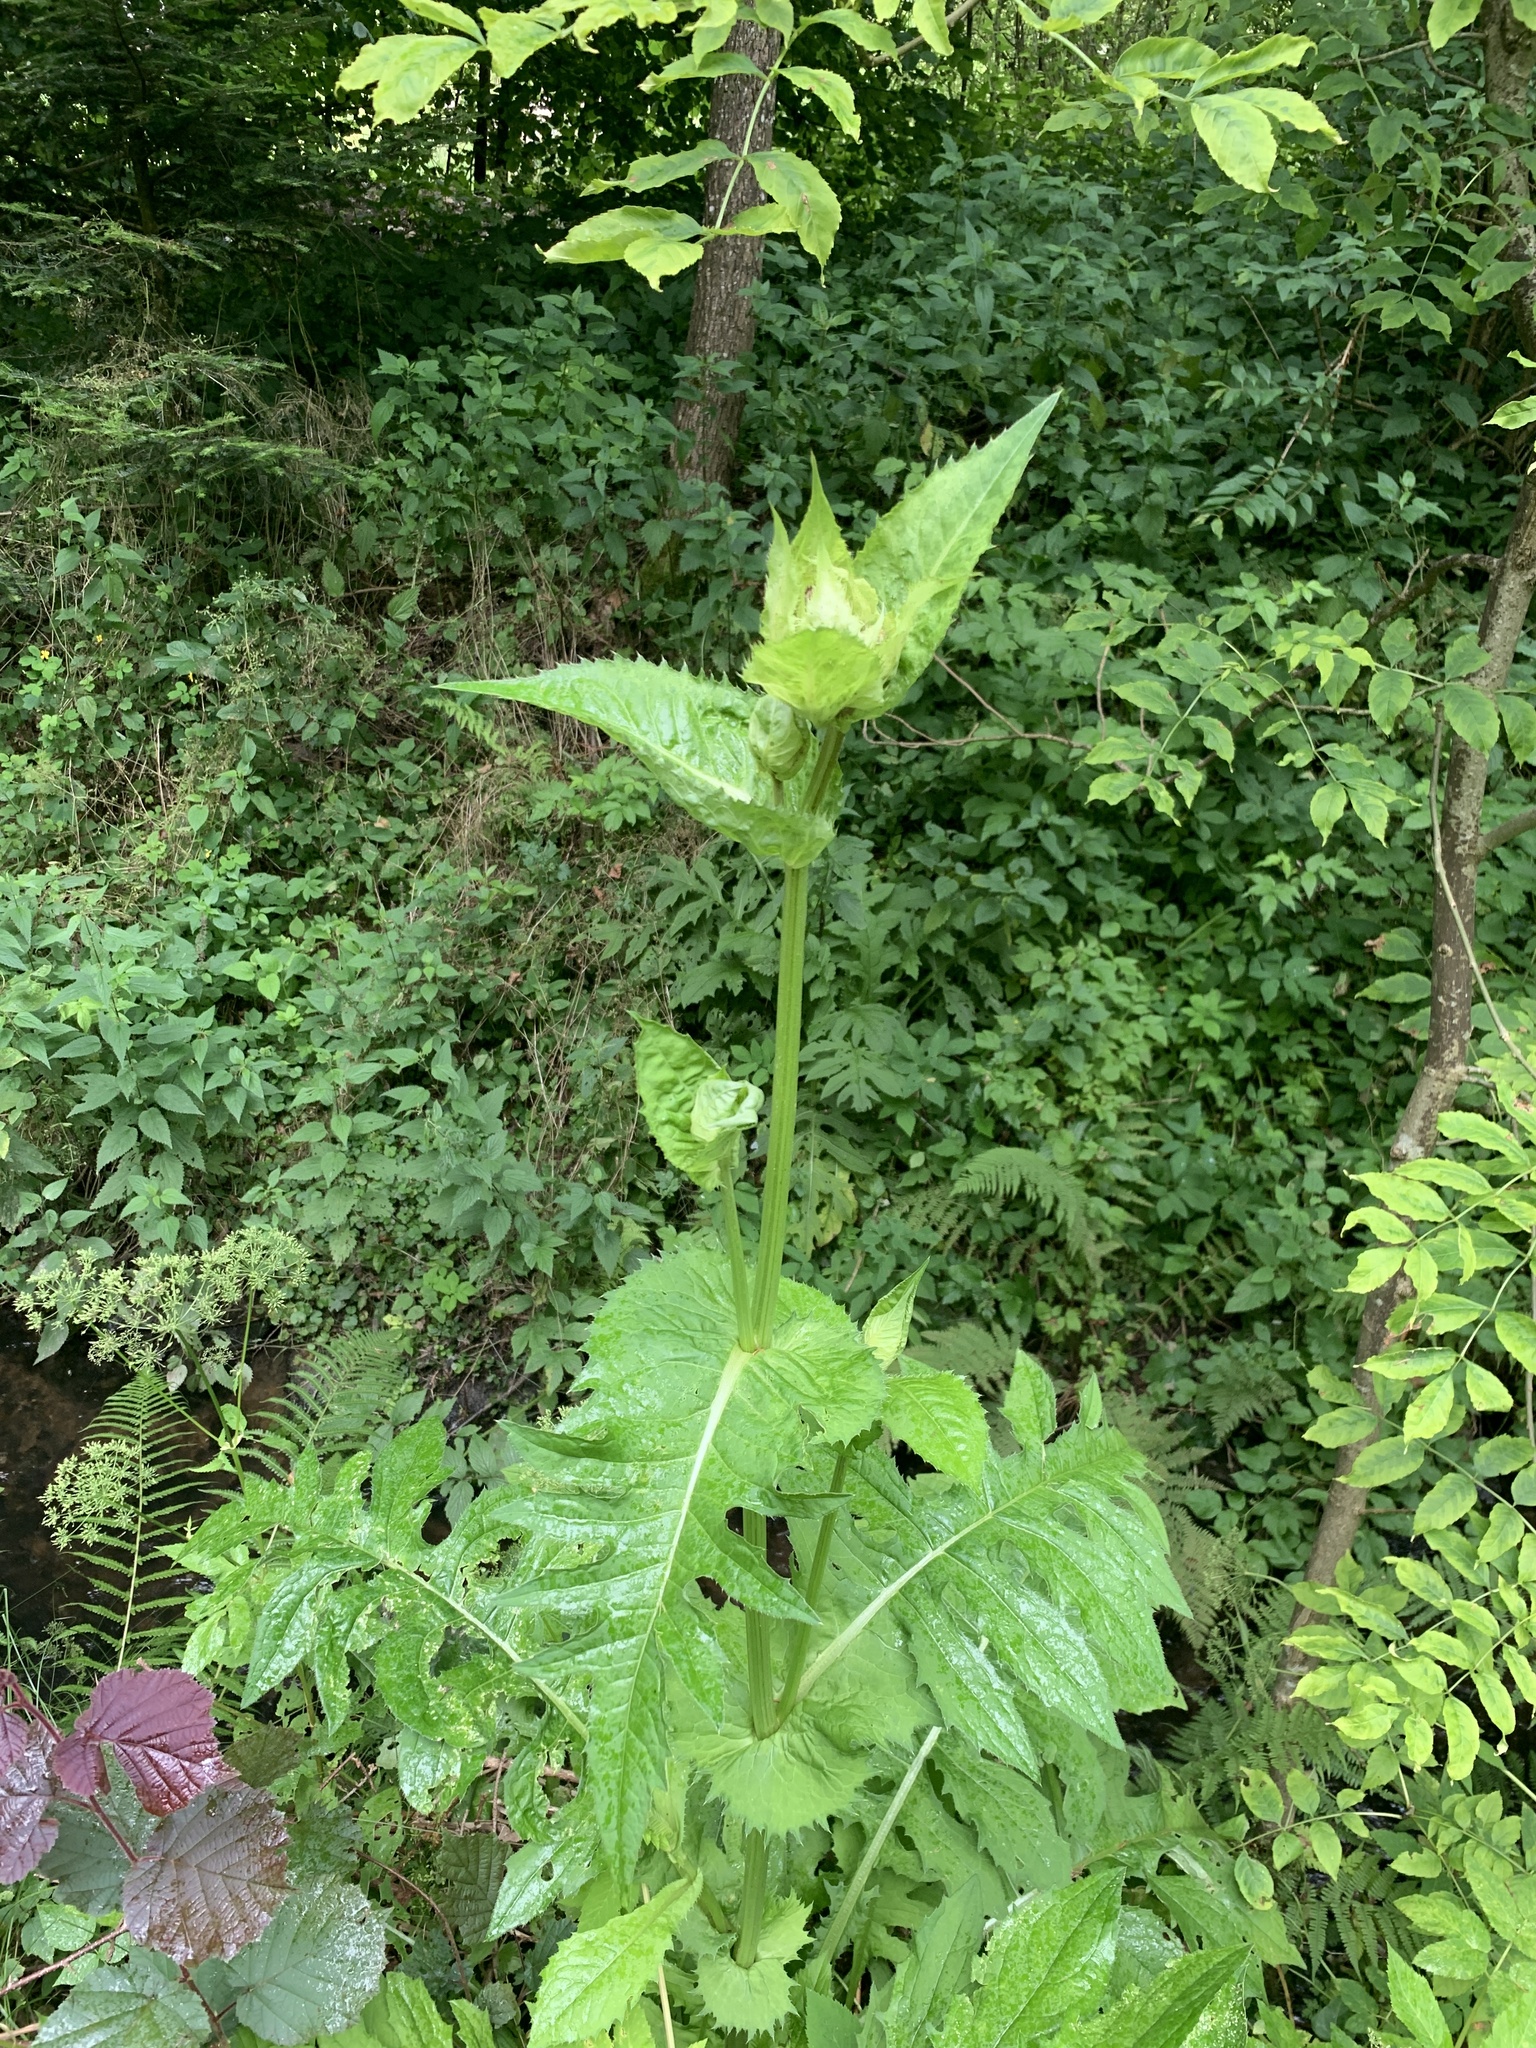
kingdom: Plantae
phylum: Tracheophyta
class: Magnoliopsida
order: Asterales
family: Asteraceae
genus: Cirsium
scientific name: Cirsium oleraceum
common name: Cabbage thistle
